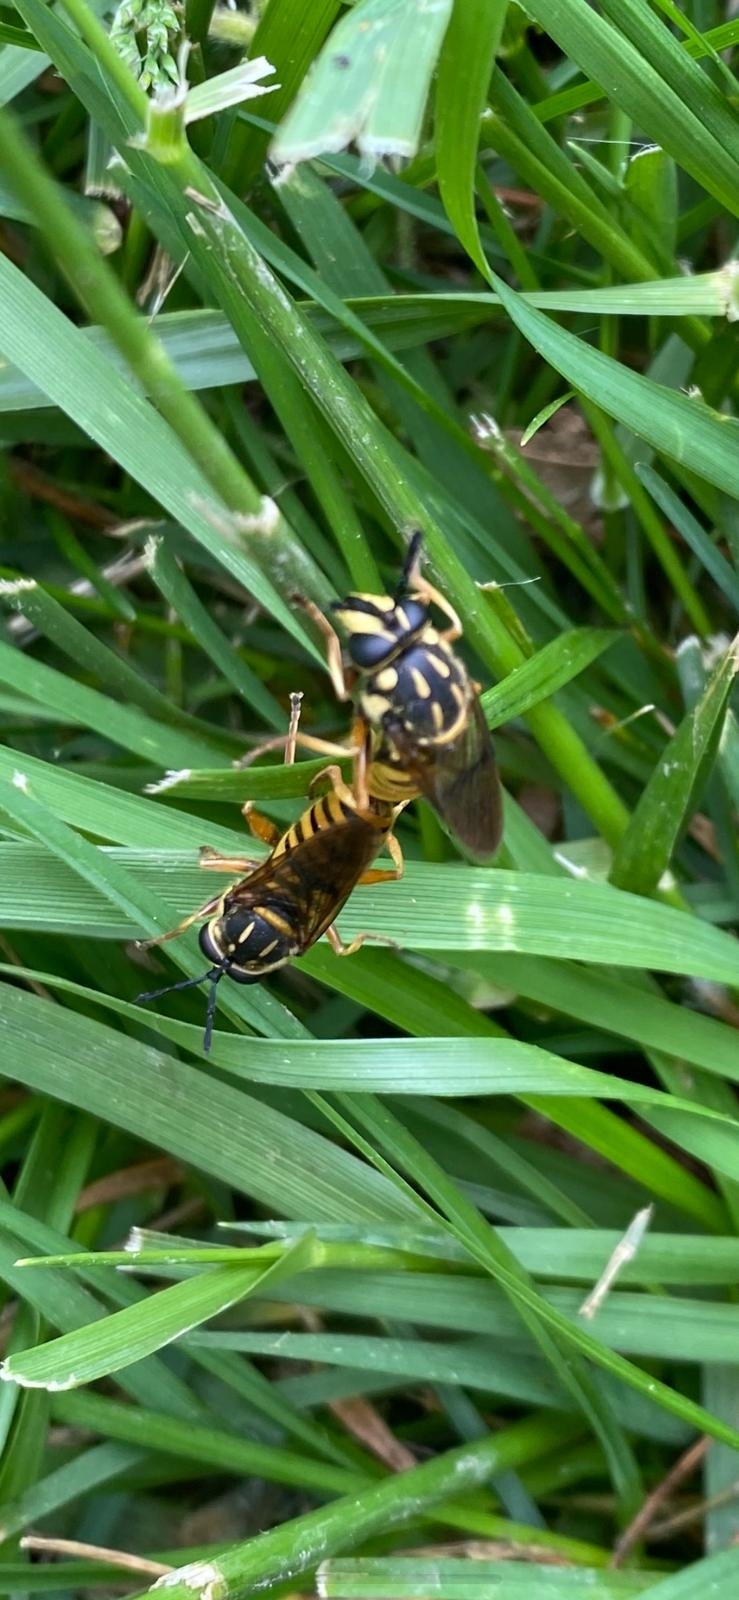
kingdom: Animalia
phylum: Arthropoda
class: Insecta
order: Diptera
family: Syrphidae
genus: Sphecomyia
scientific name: Sphecomyia vittata
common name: Long-horned yellowjacket fly
